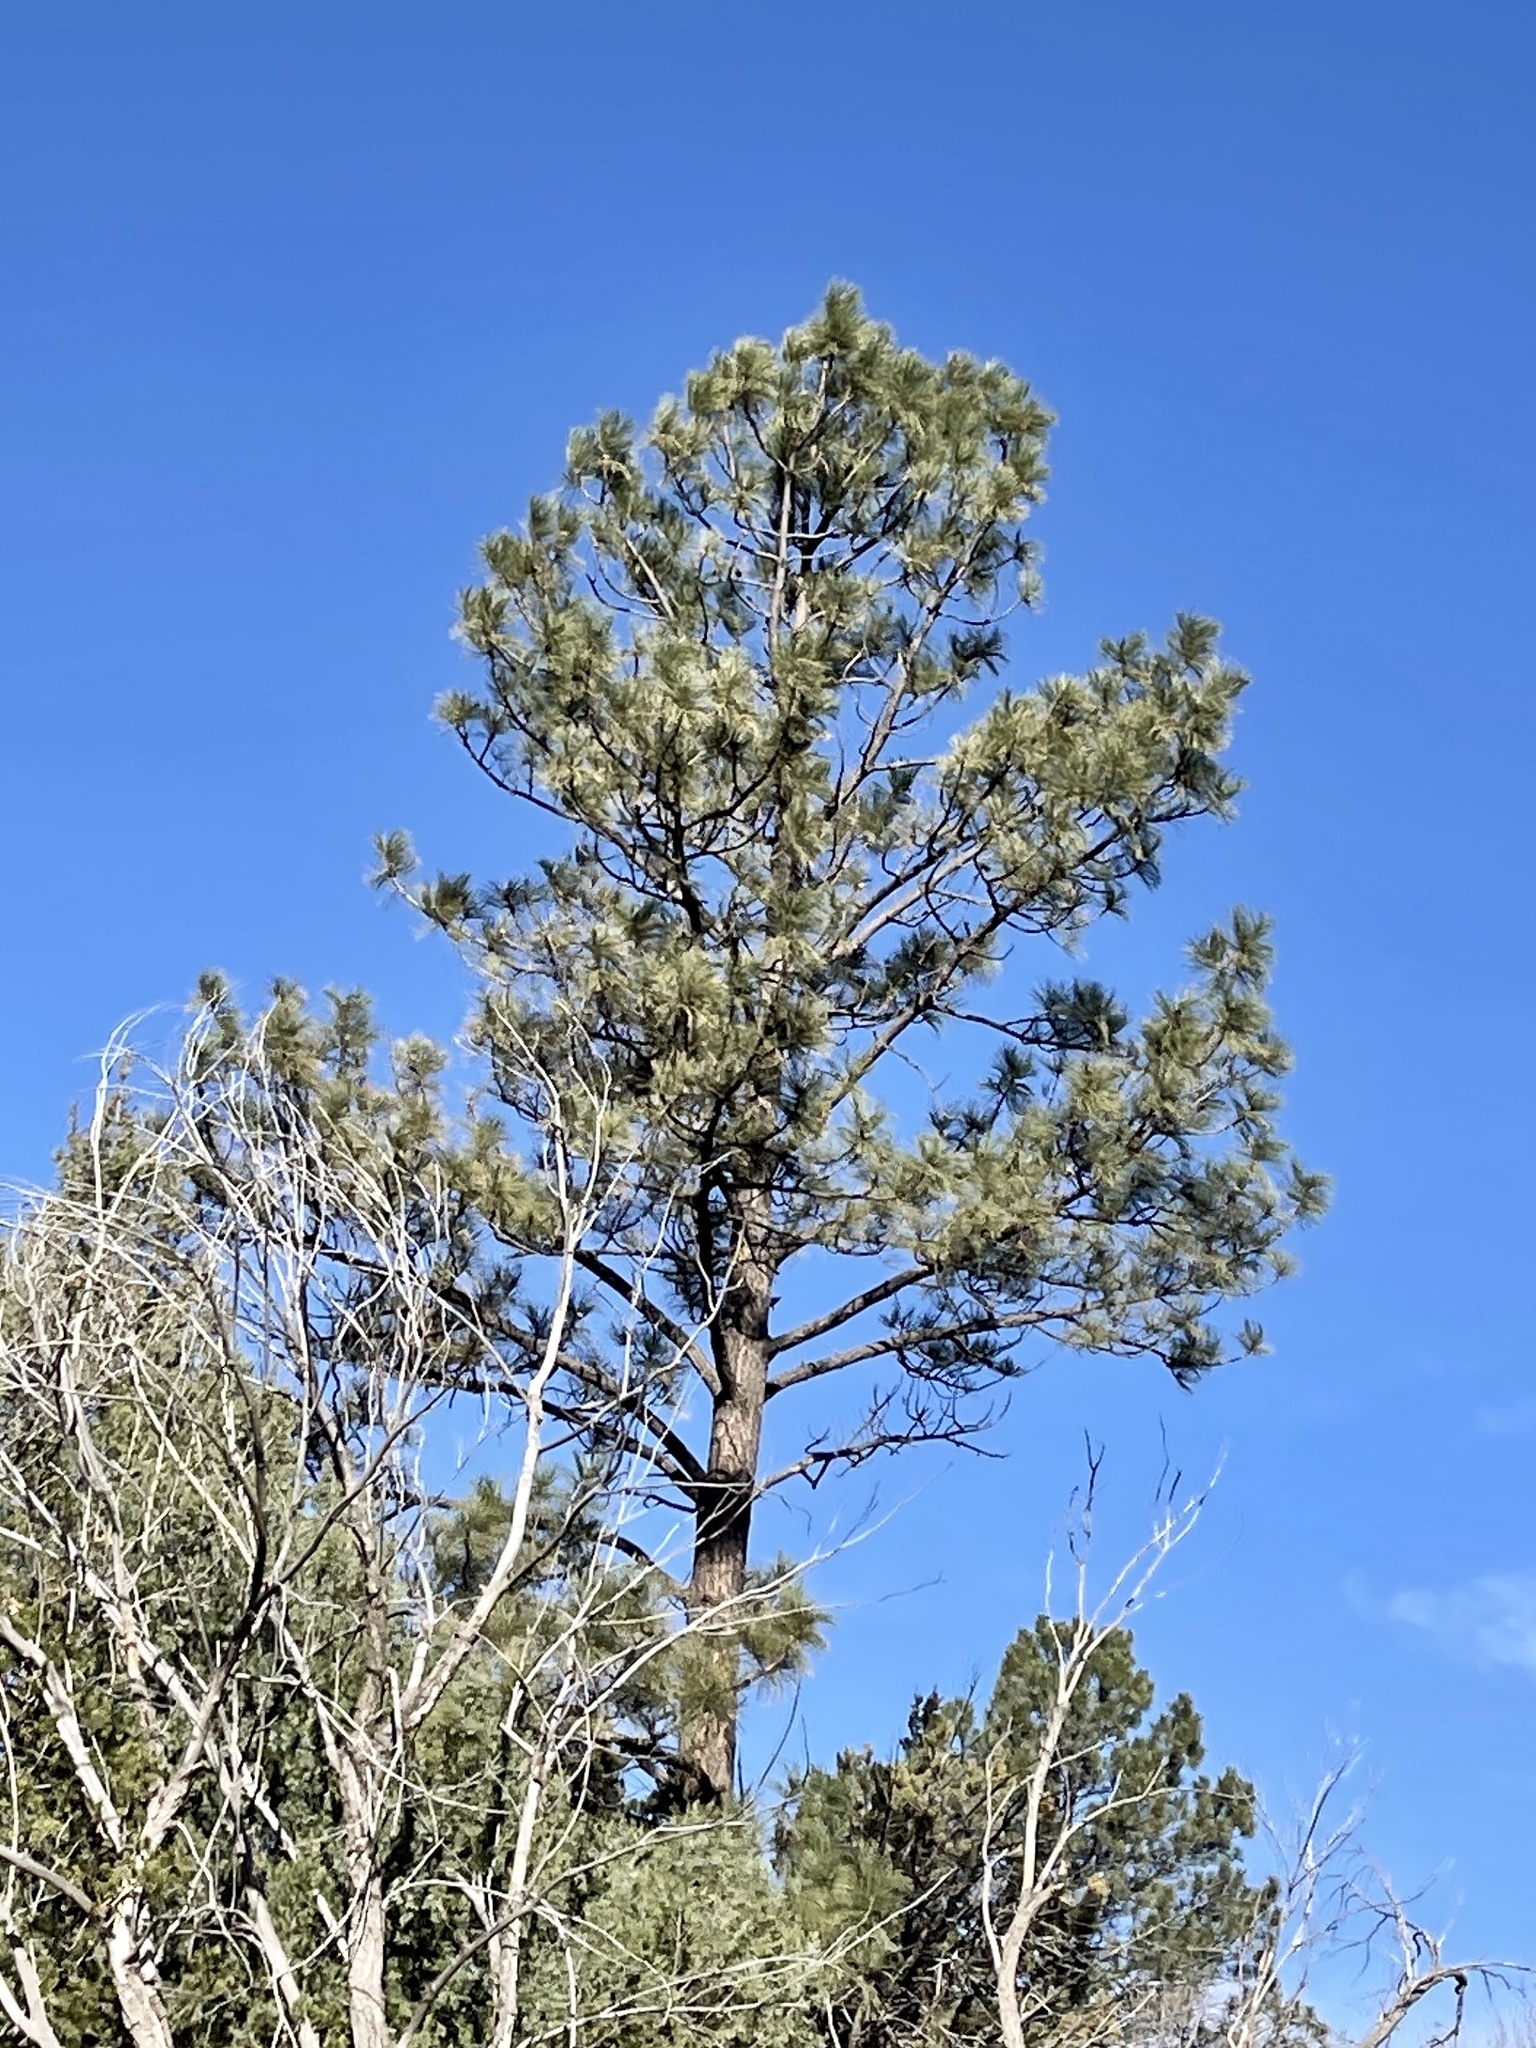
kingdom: Plantae
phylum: Tracheophyta
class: Pinopsida
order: Pinales
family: Pinaceae
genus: Pinus
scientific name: Pinus ponderosa
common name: Western yellow-pine
